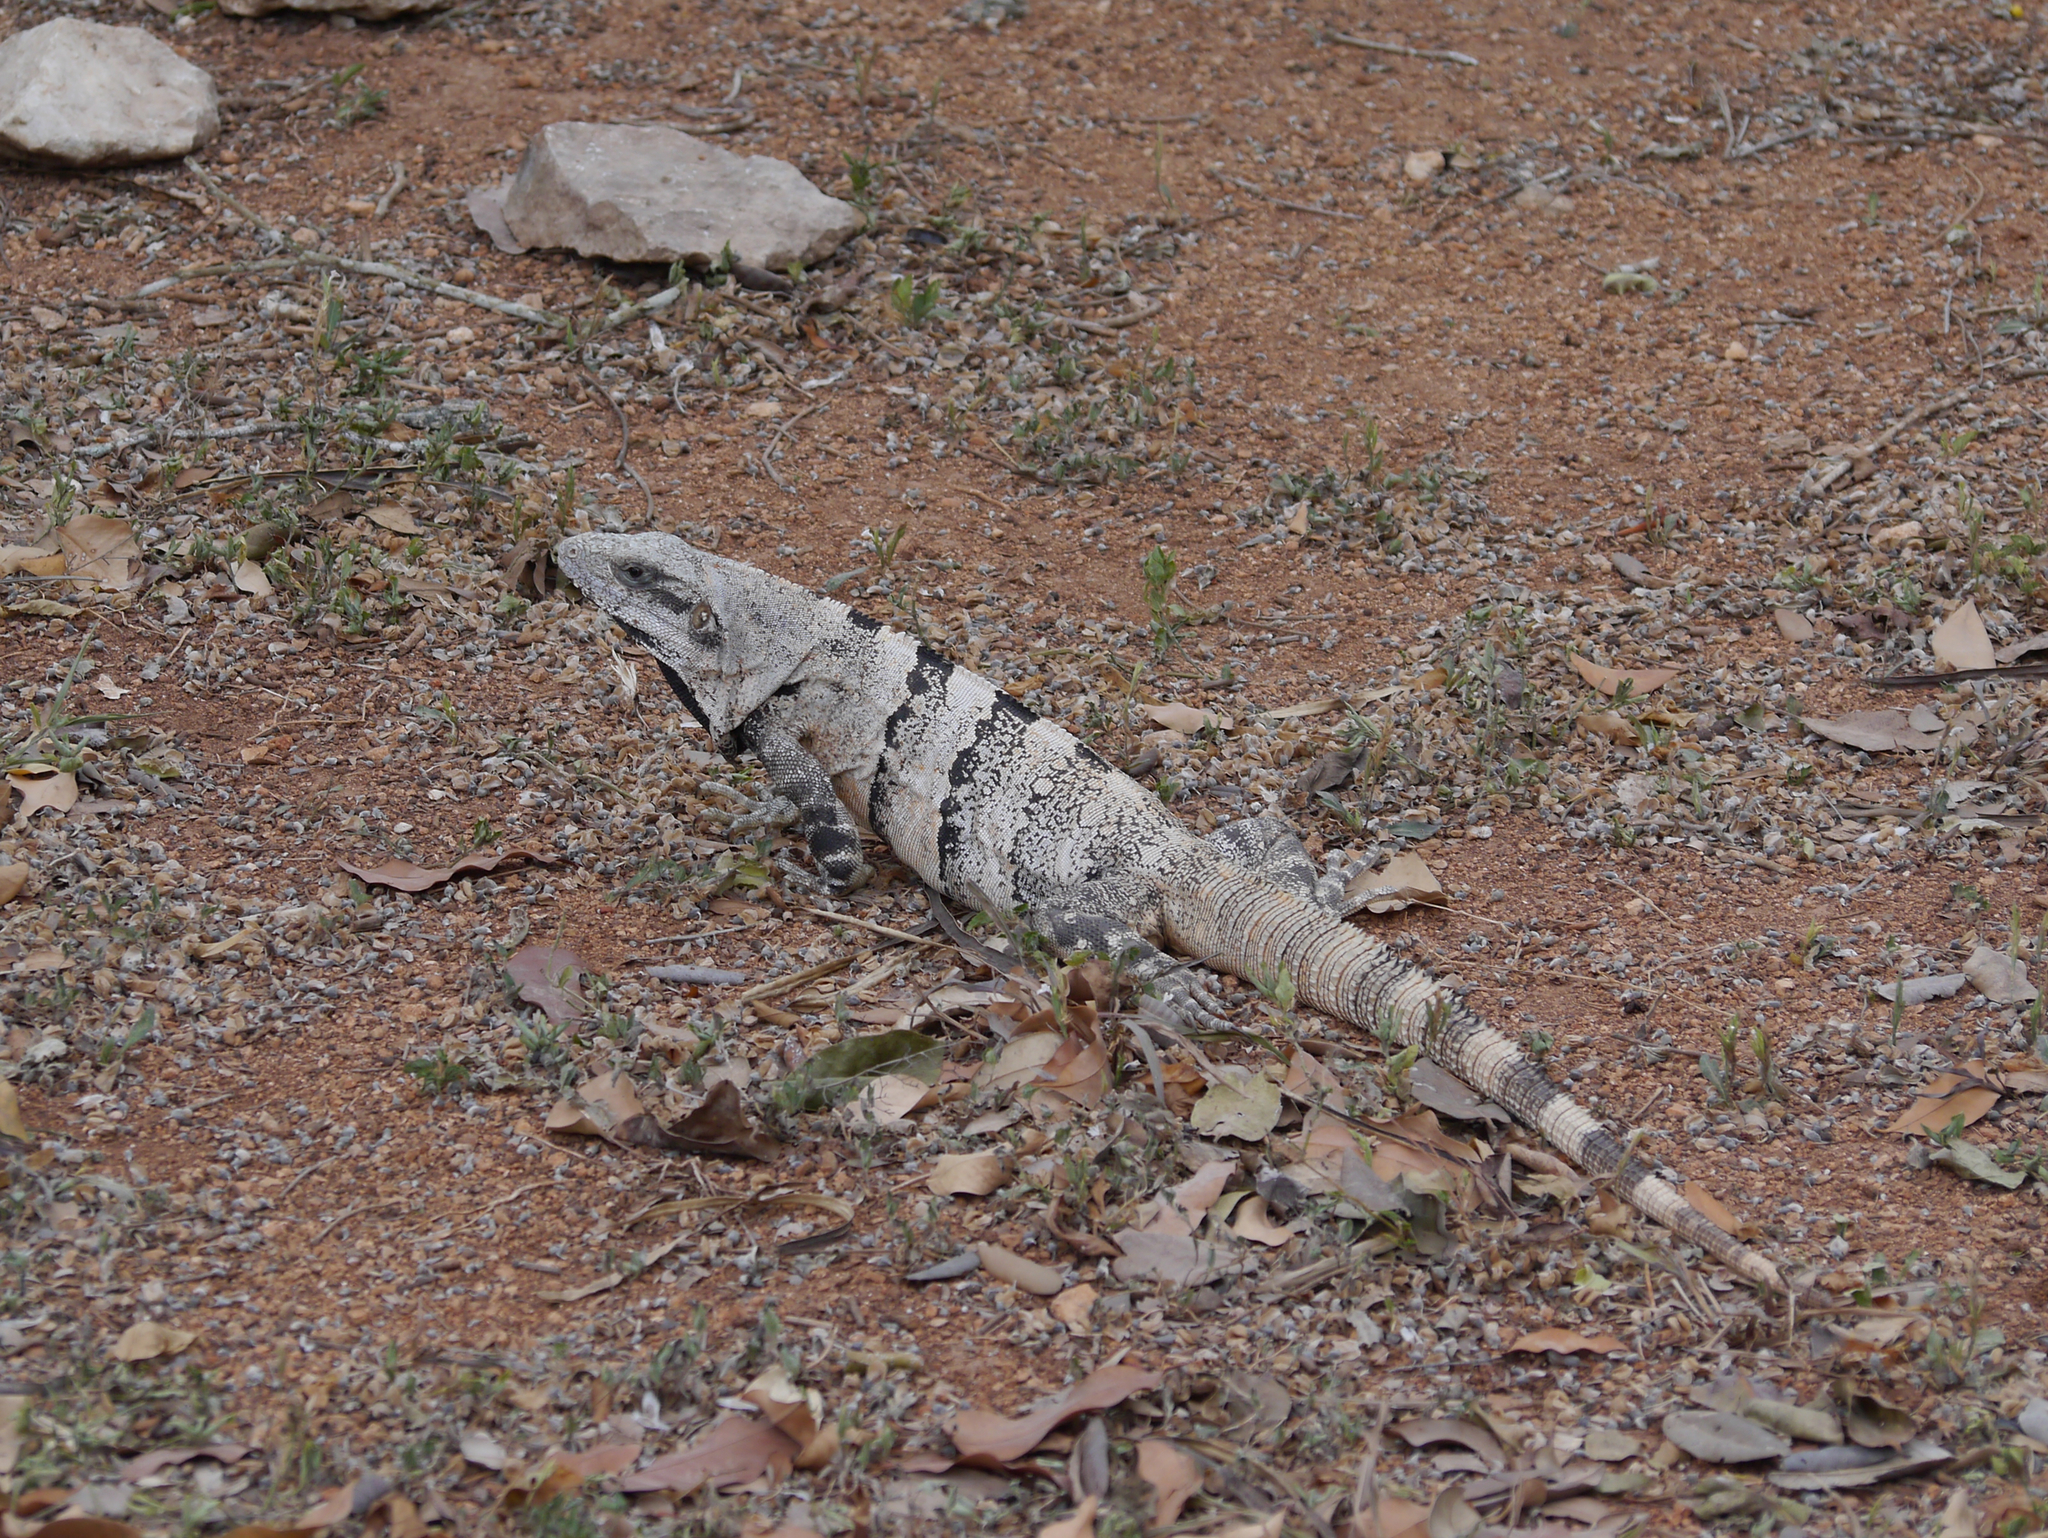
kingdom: Animalia
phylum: Chordata
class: Squamata
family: Iguanidae
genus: Ctenosaura
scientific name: Ctenosaura similis
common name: Black spiny-tailed iguana
